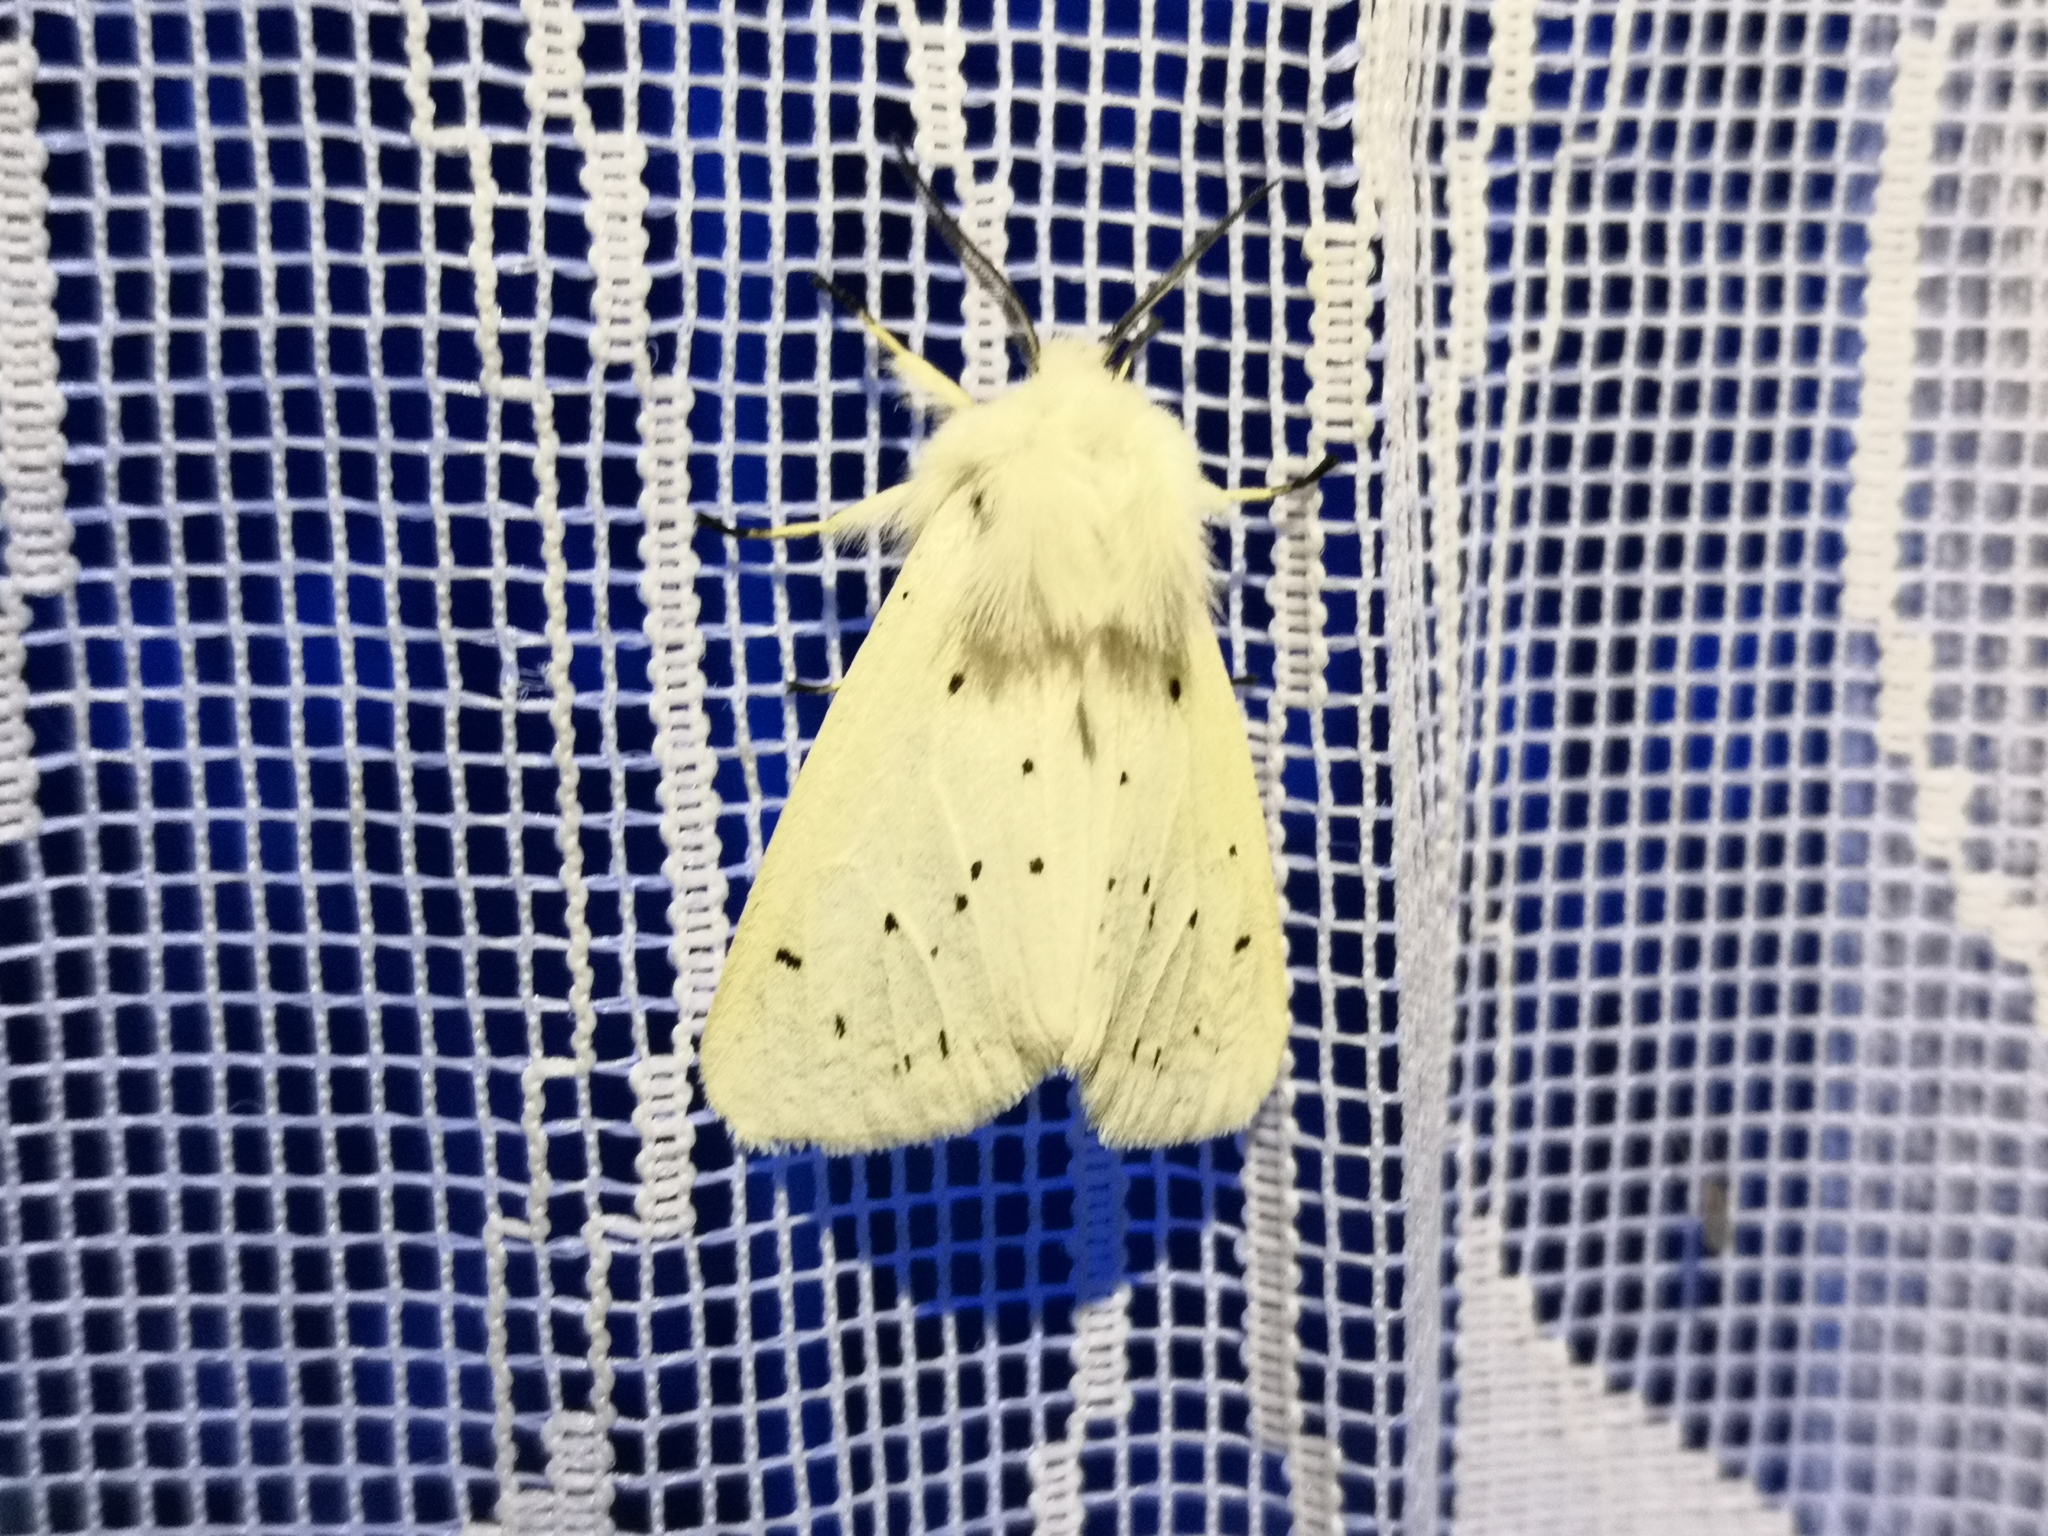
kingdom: Animalia
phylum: Arthropoda
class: Insecta
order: Lepidoptera
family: Erebidae
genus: Spilosoma
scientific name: Spilosoma lubricipeda
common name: White ermine
